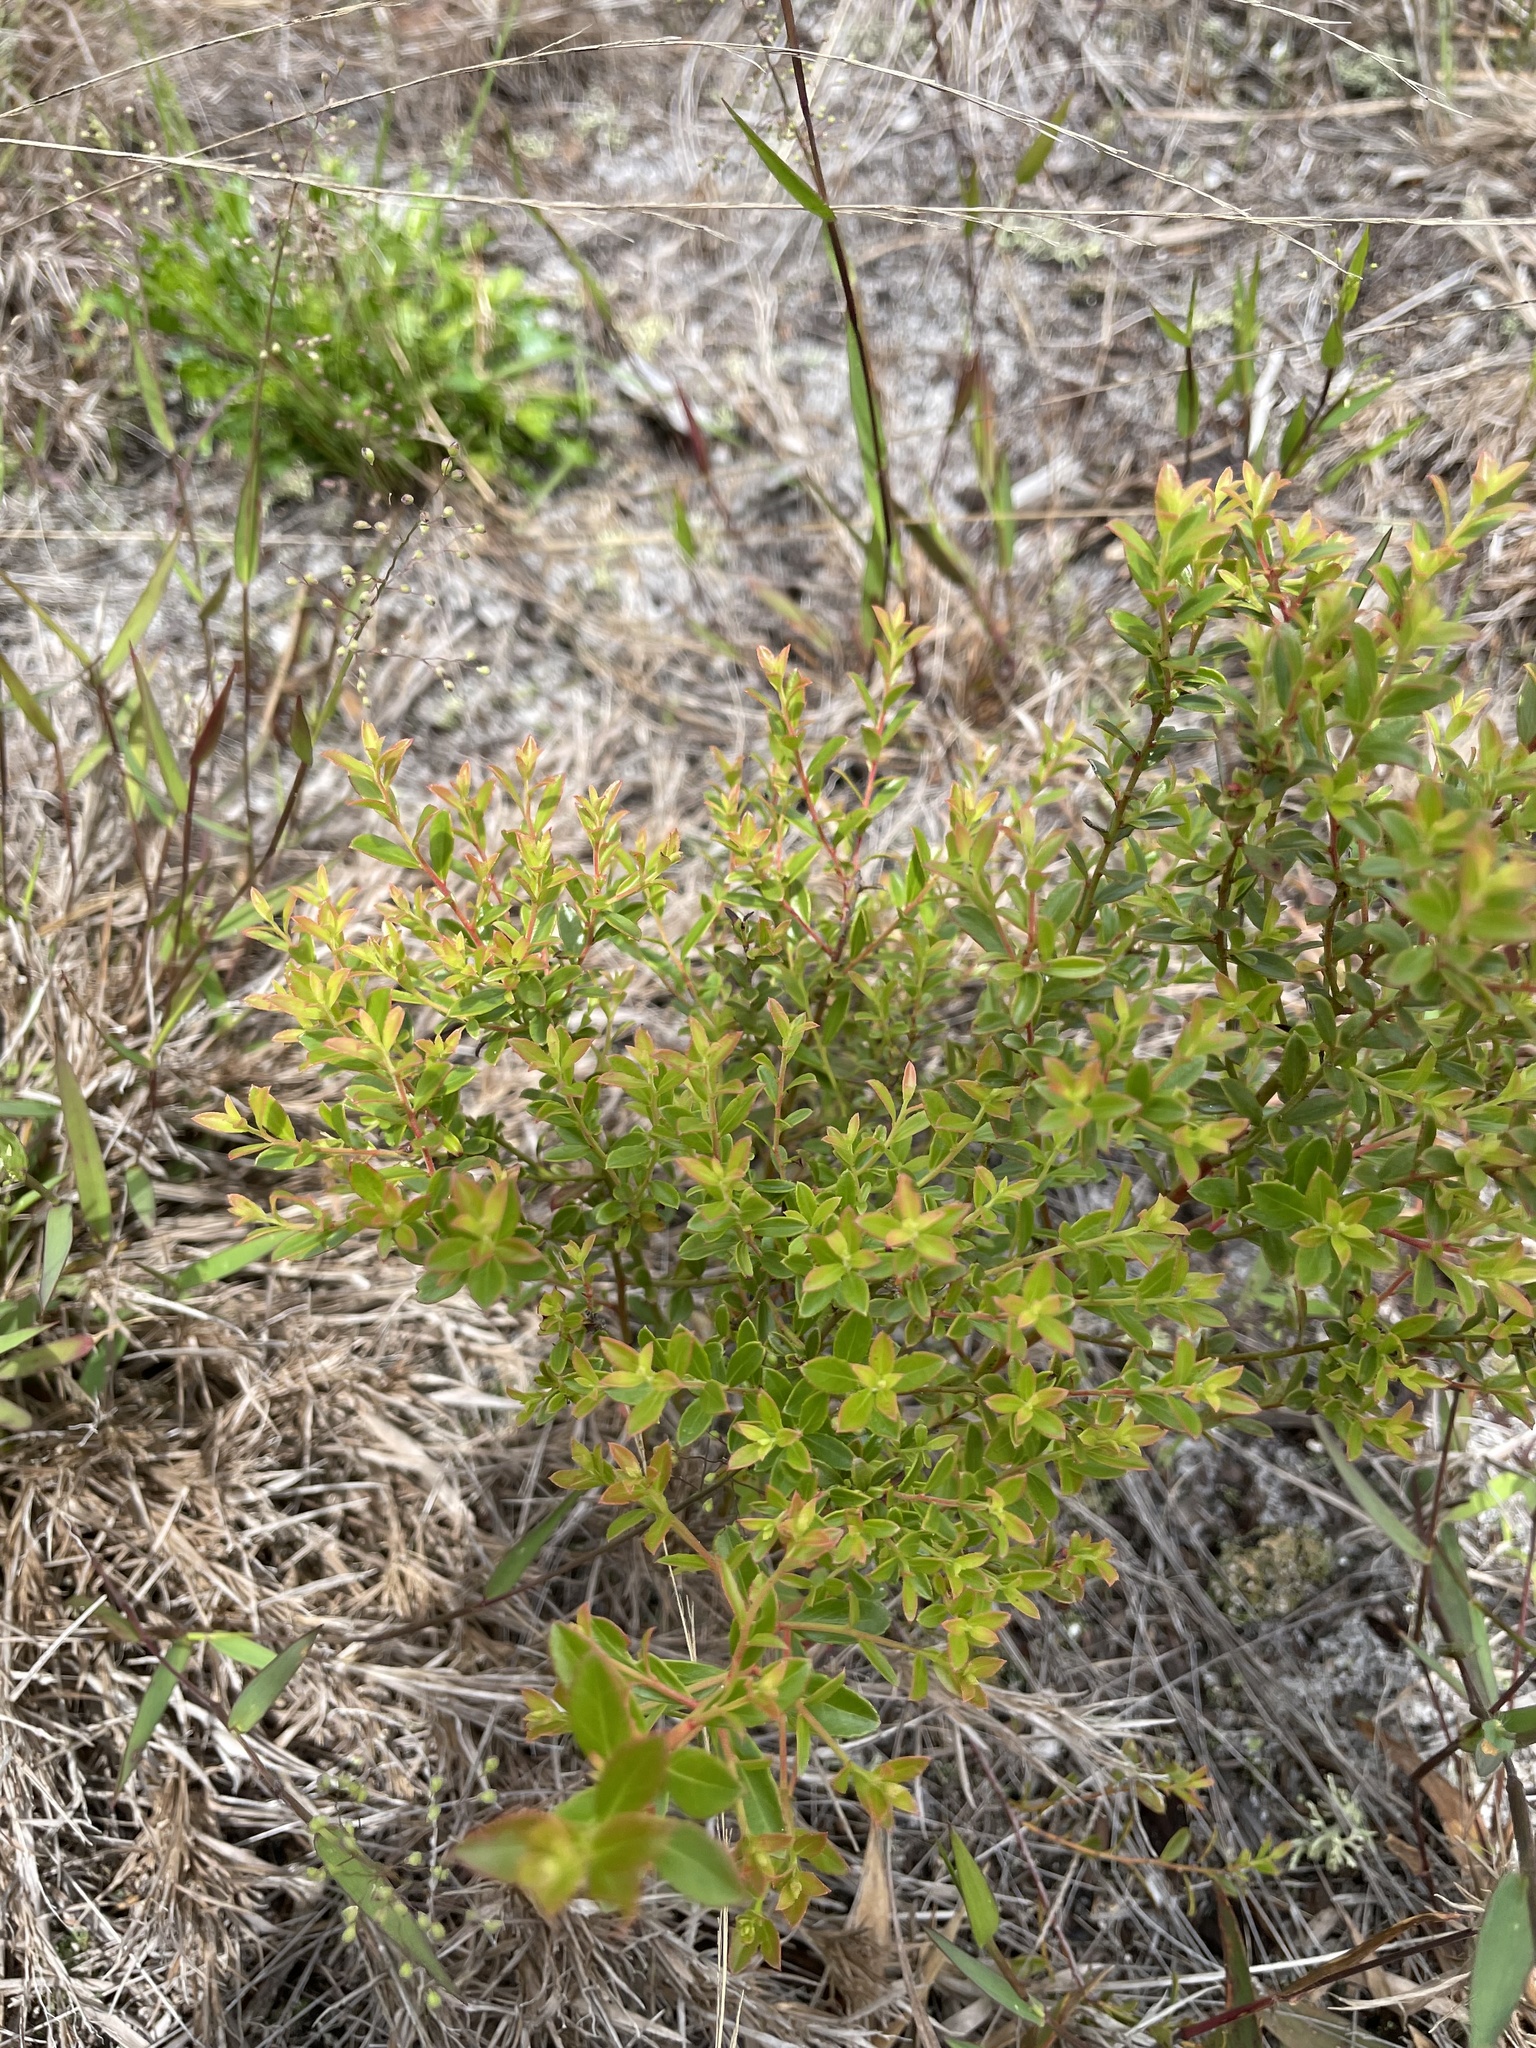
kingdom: Plantae
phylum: Tracheophyta
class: Magnoliopsida
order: Ericales
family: Ericaceae
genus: Vaccinium
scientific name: Vaccinium myrsinites
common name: Evergreen blueberry
